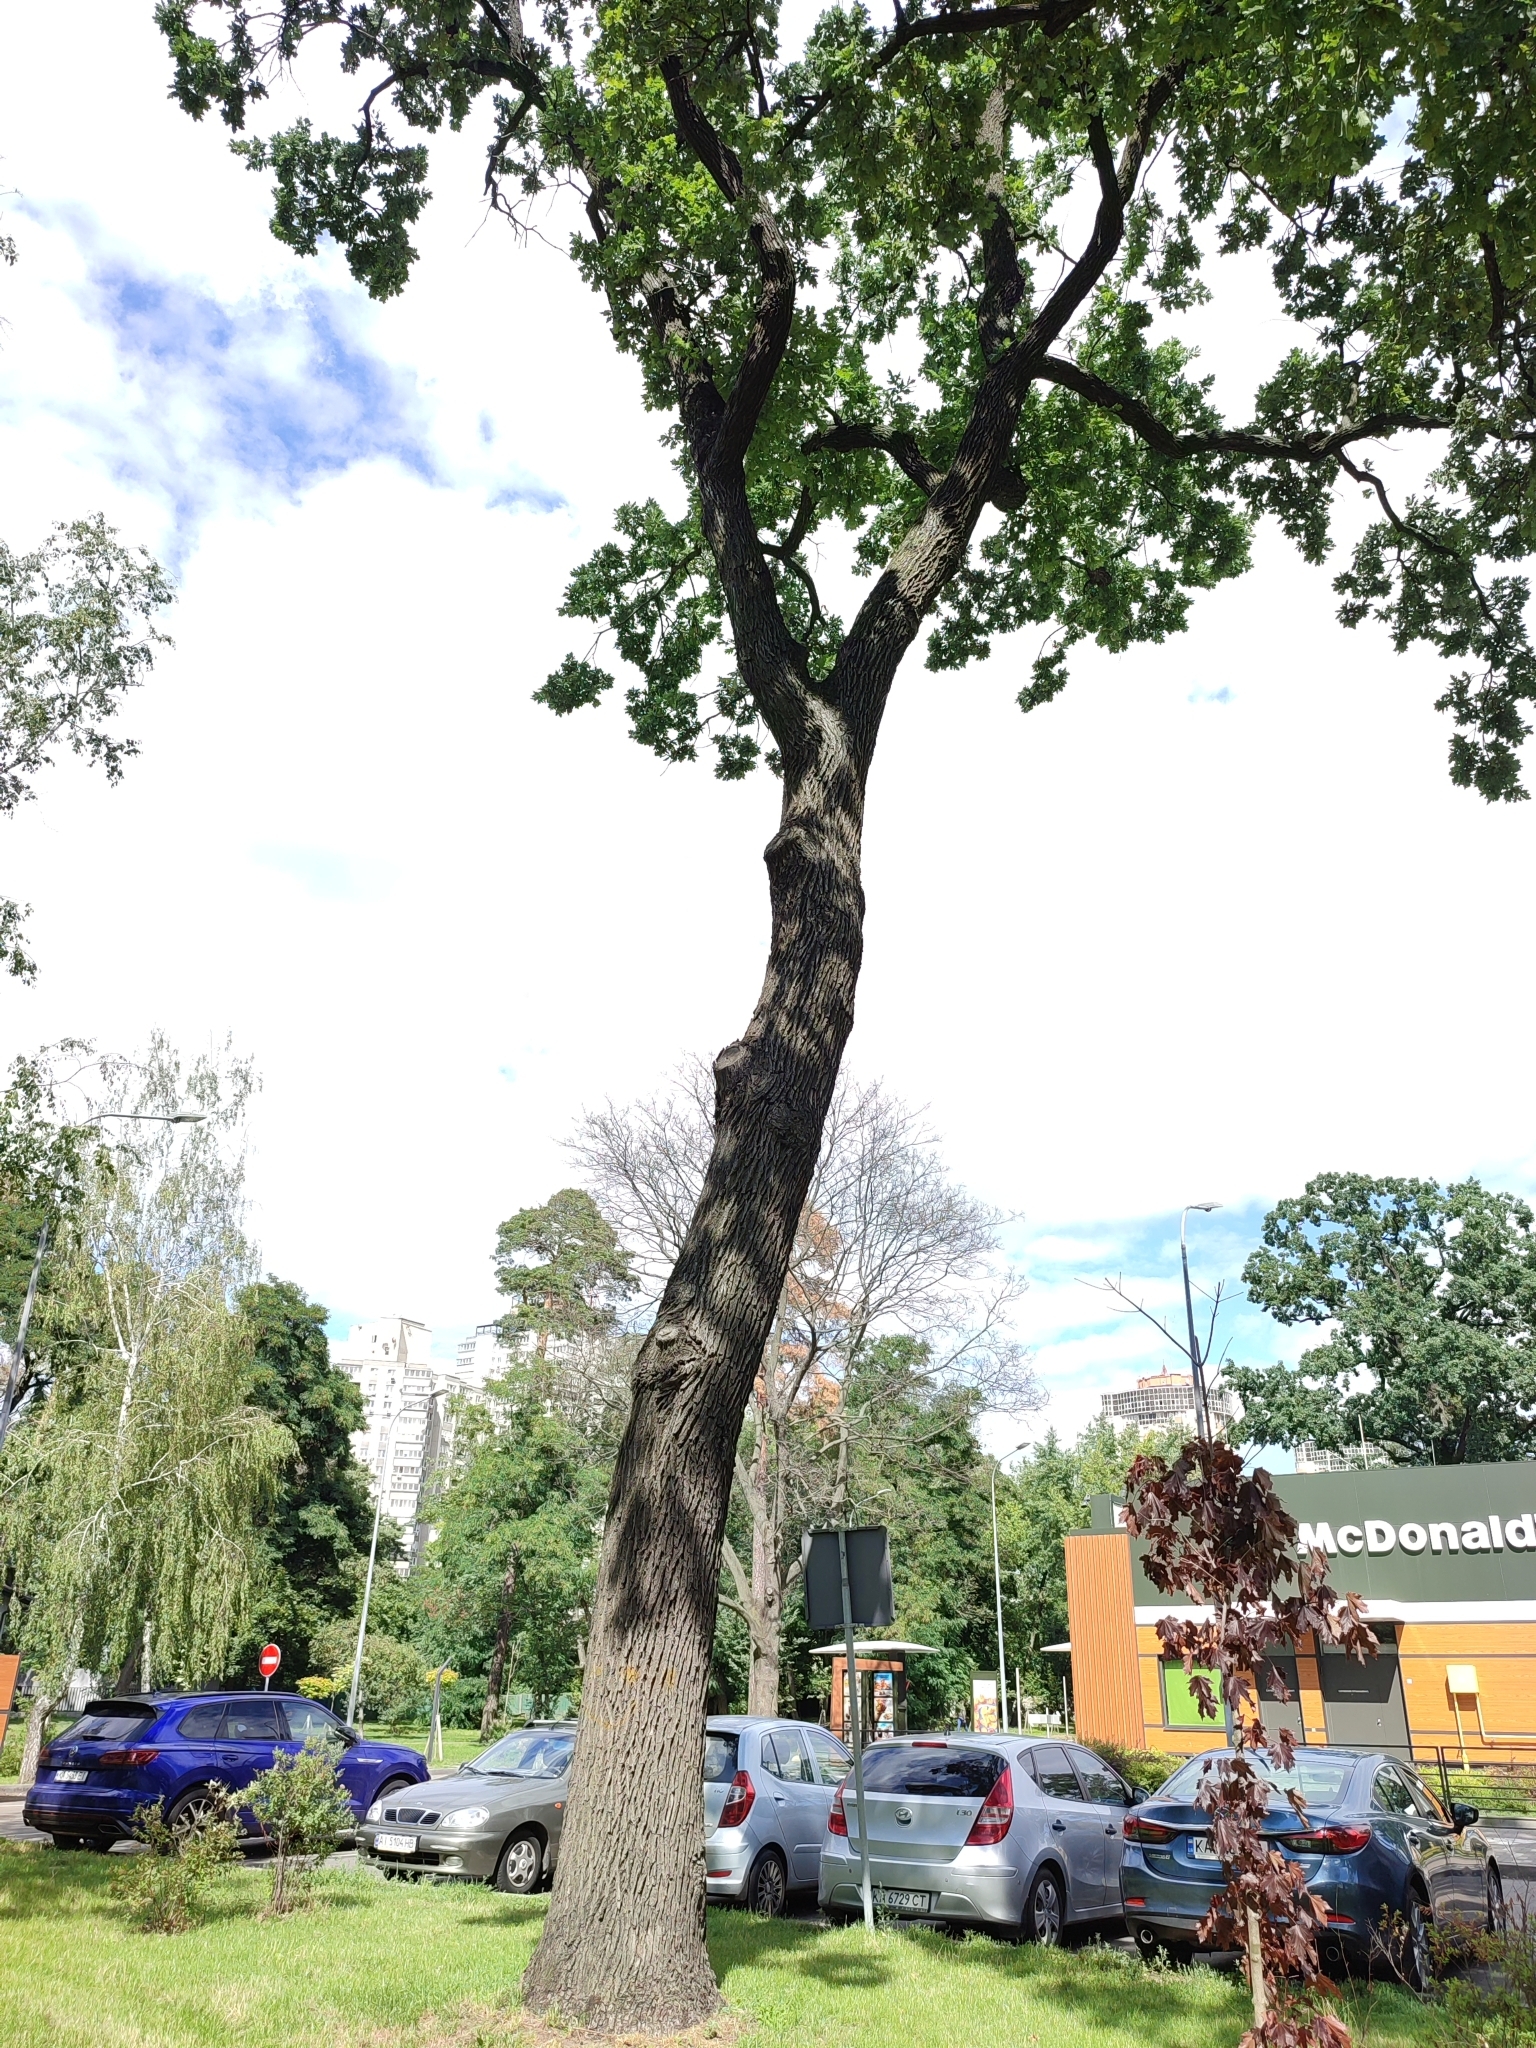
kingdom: Plantae
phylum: Tracheophyta
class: Magnoliopsida
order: Fagales
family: Fagaceae
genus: Quercus
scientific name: Quercus robur
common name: Pedunculate oak
